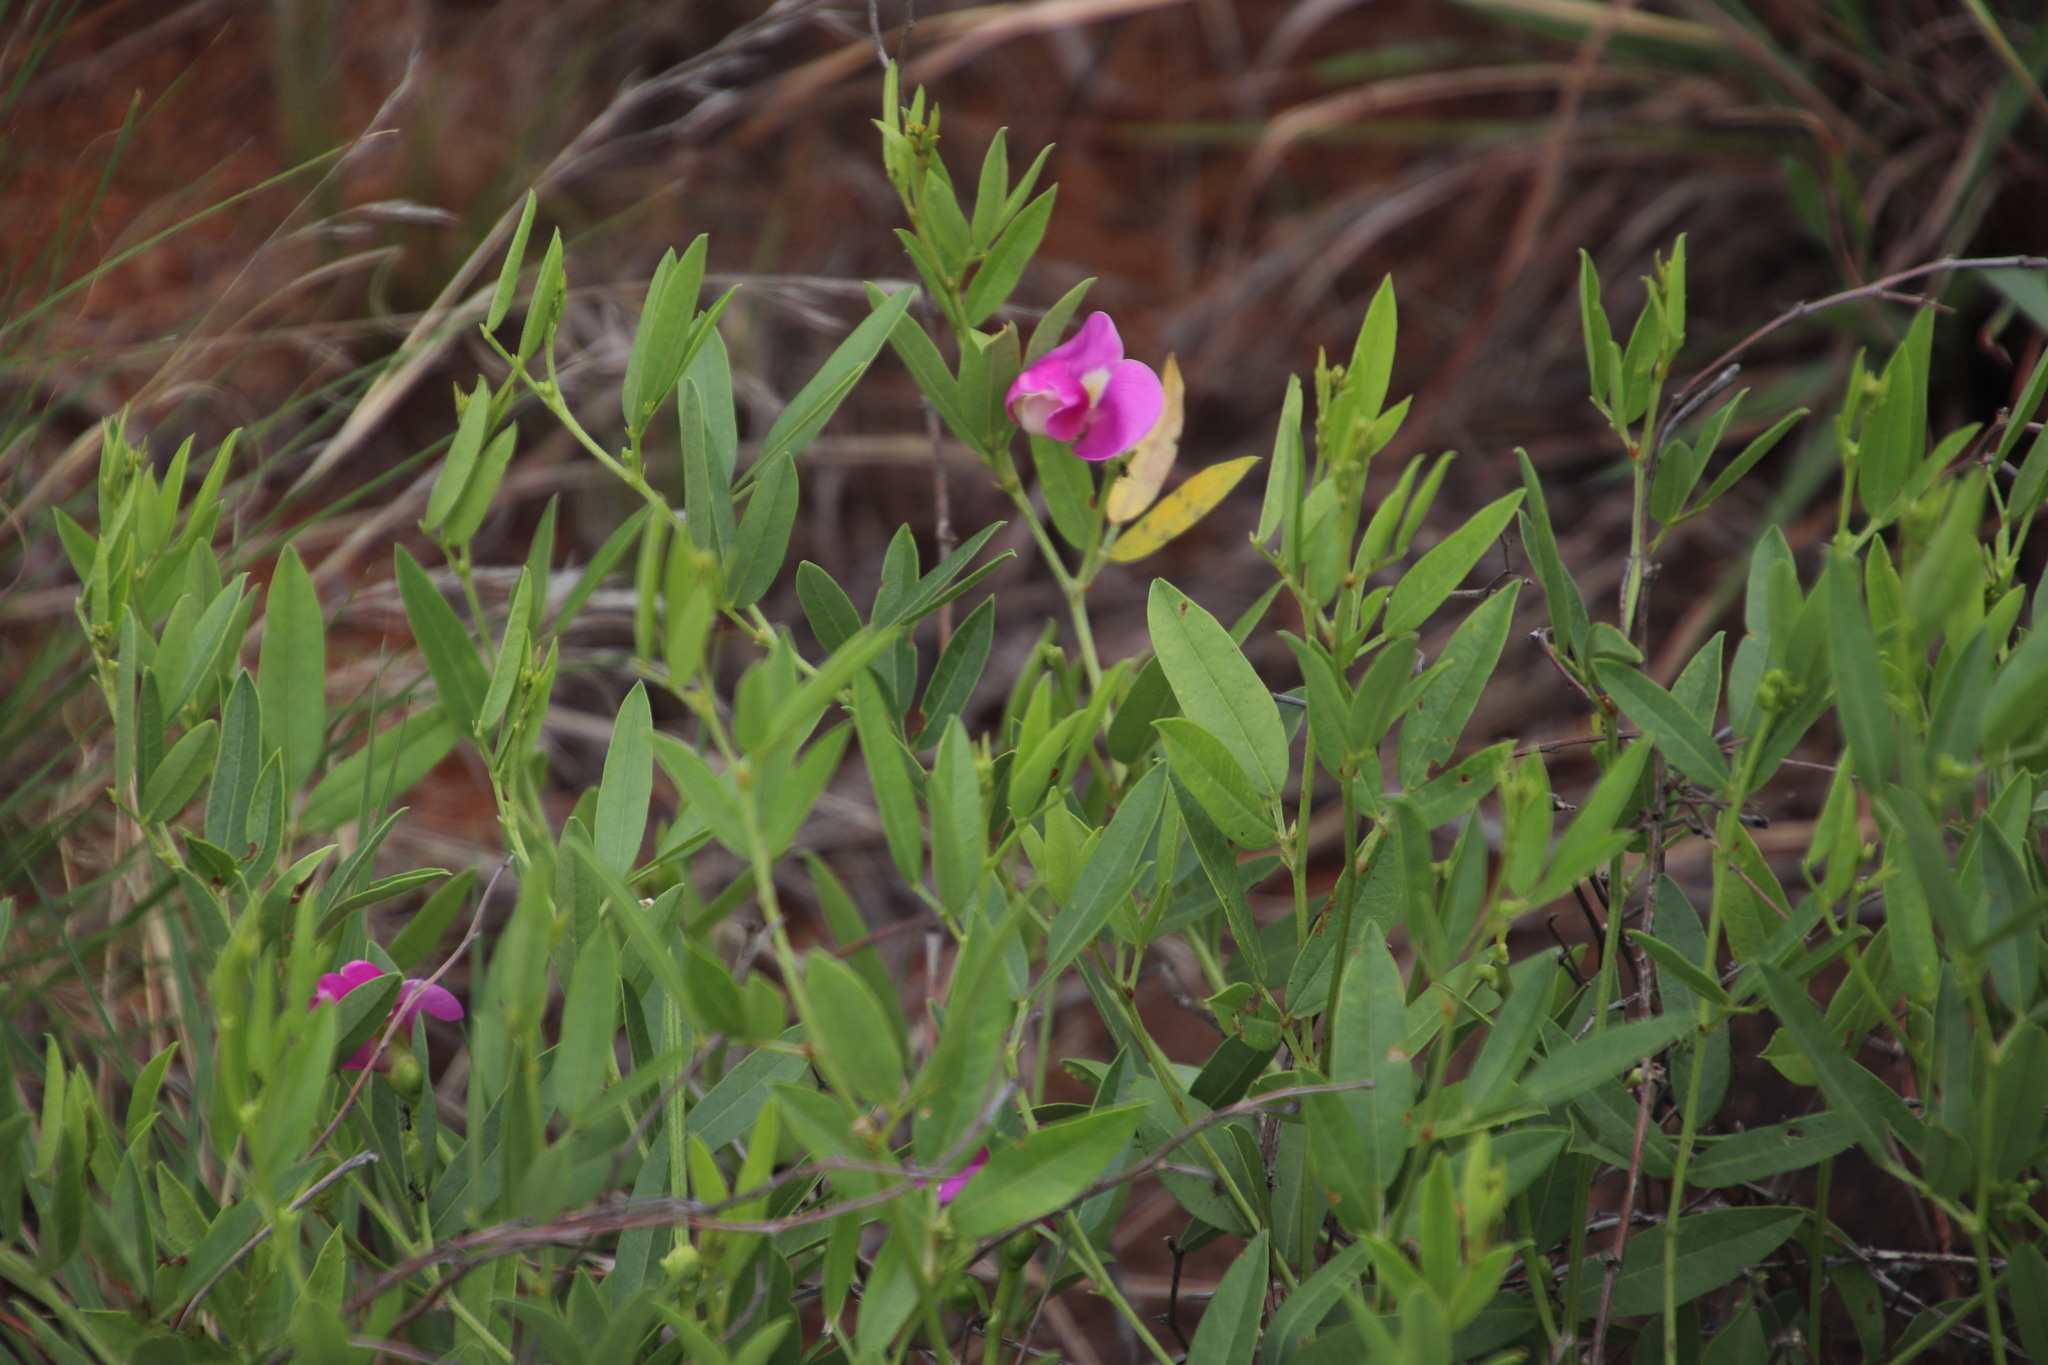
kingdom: Plantae
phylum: Tracheophyta
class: Magnoliopsida
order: Fabales
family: Fabaceae
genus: Sphenostylis
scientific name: Sphenostylis angustifolia
